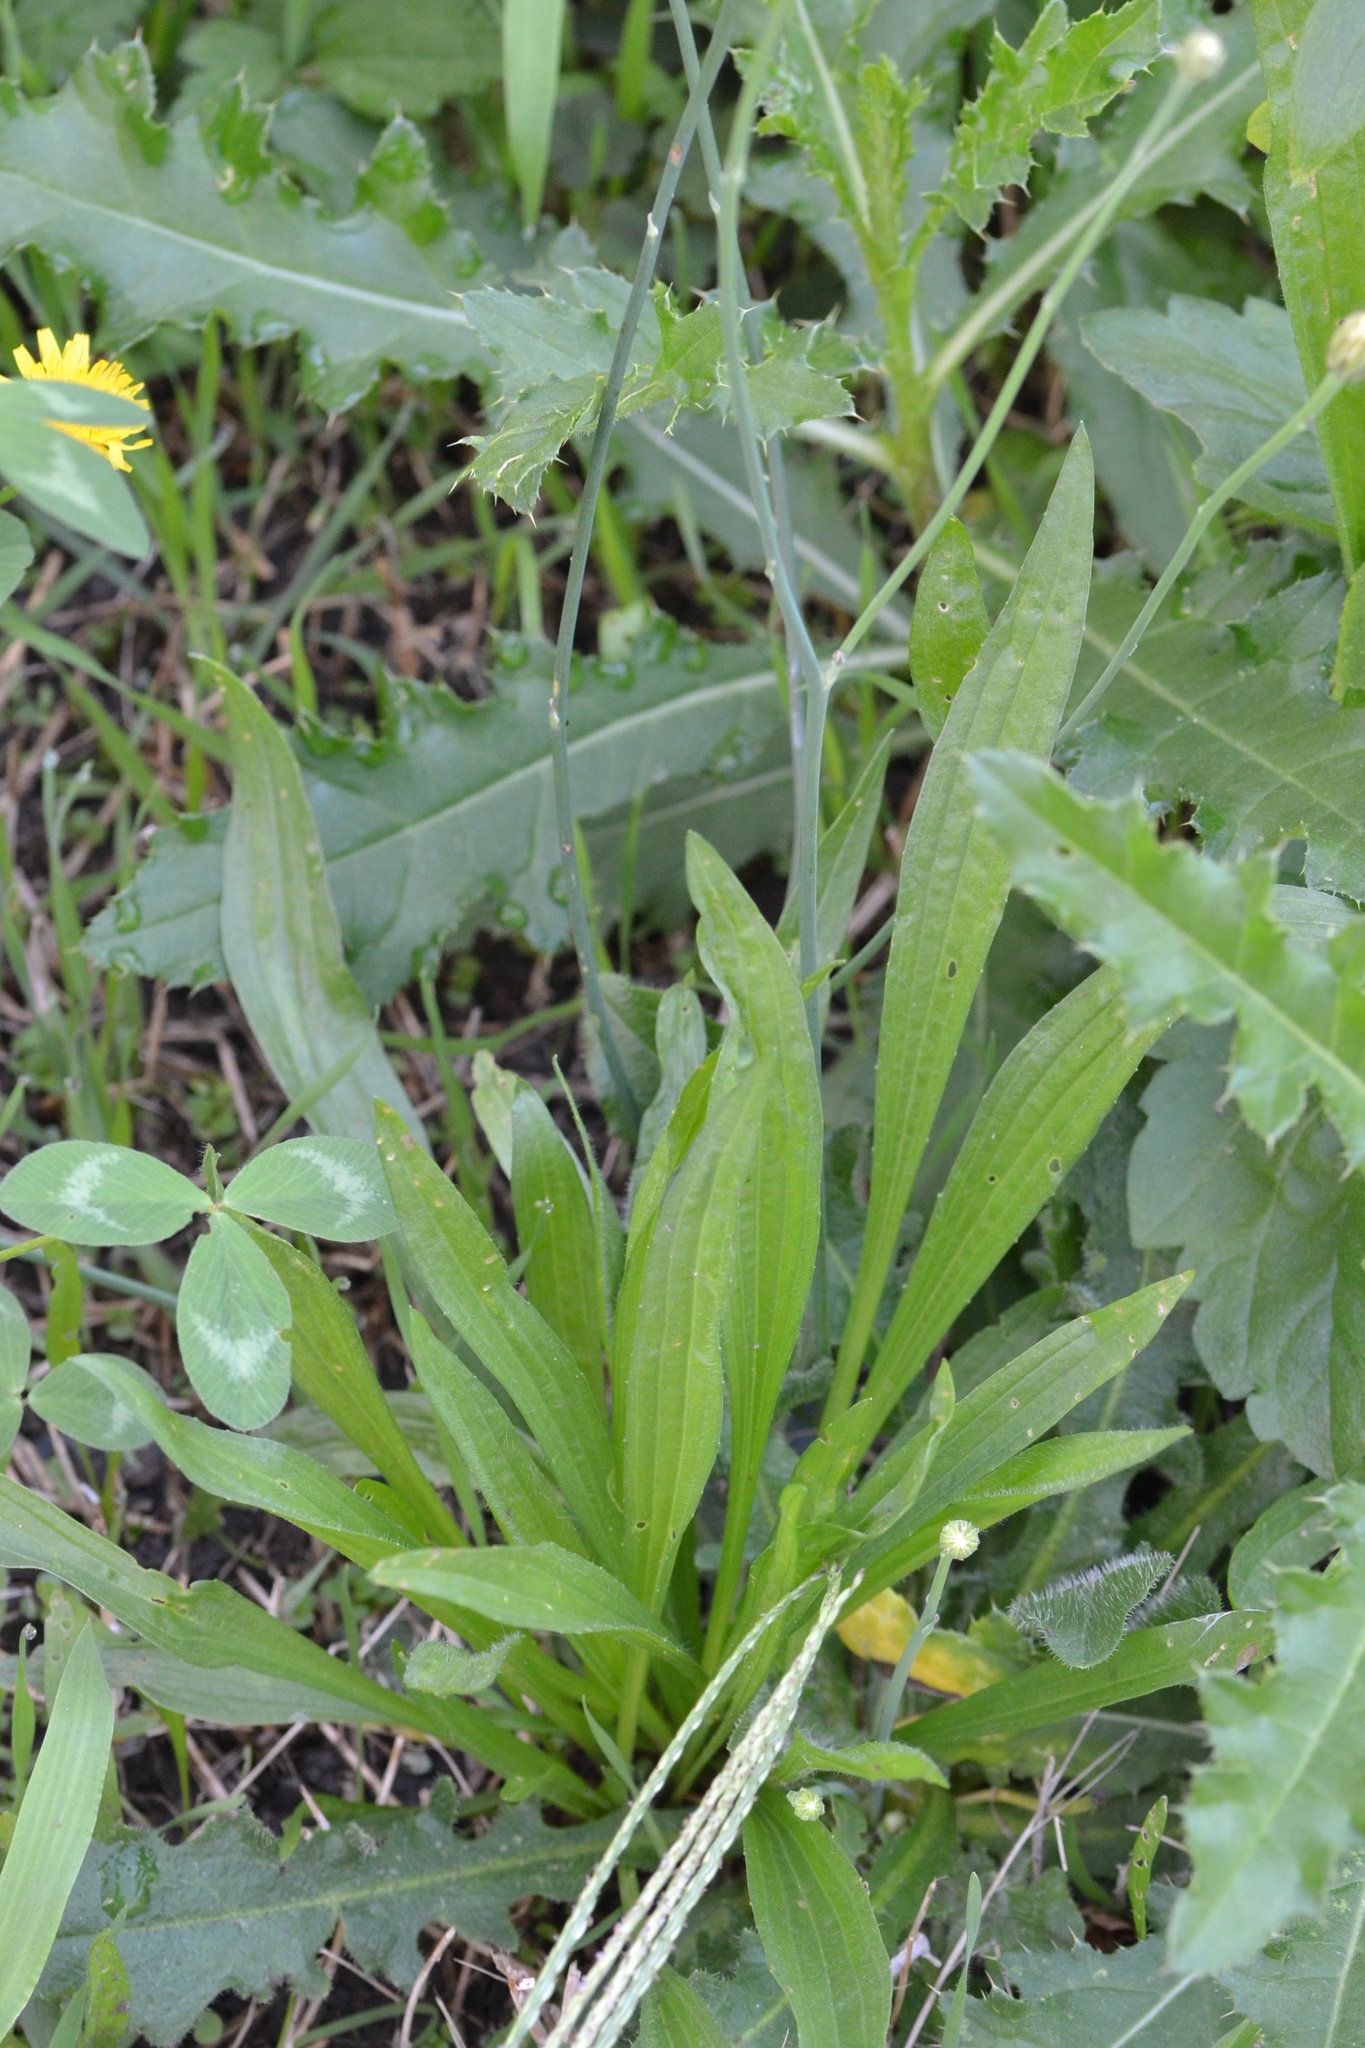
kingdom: Plantae
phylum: Tracheophyta
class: Magnoliopsida
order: Lamiales
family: Plantaginaceae
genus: Plantago
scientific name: Plantago lanceolata
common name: Ribwort plantain
